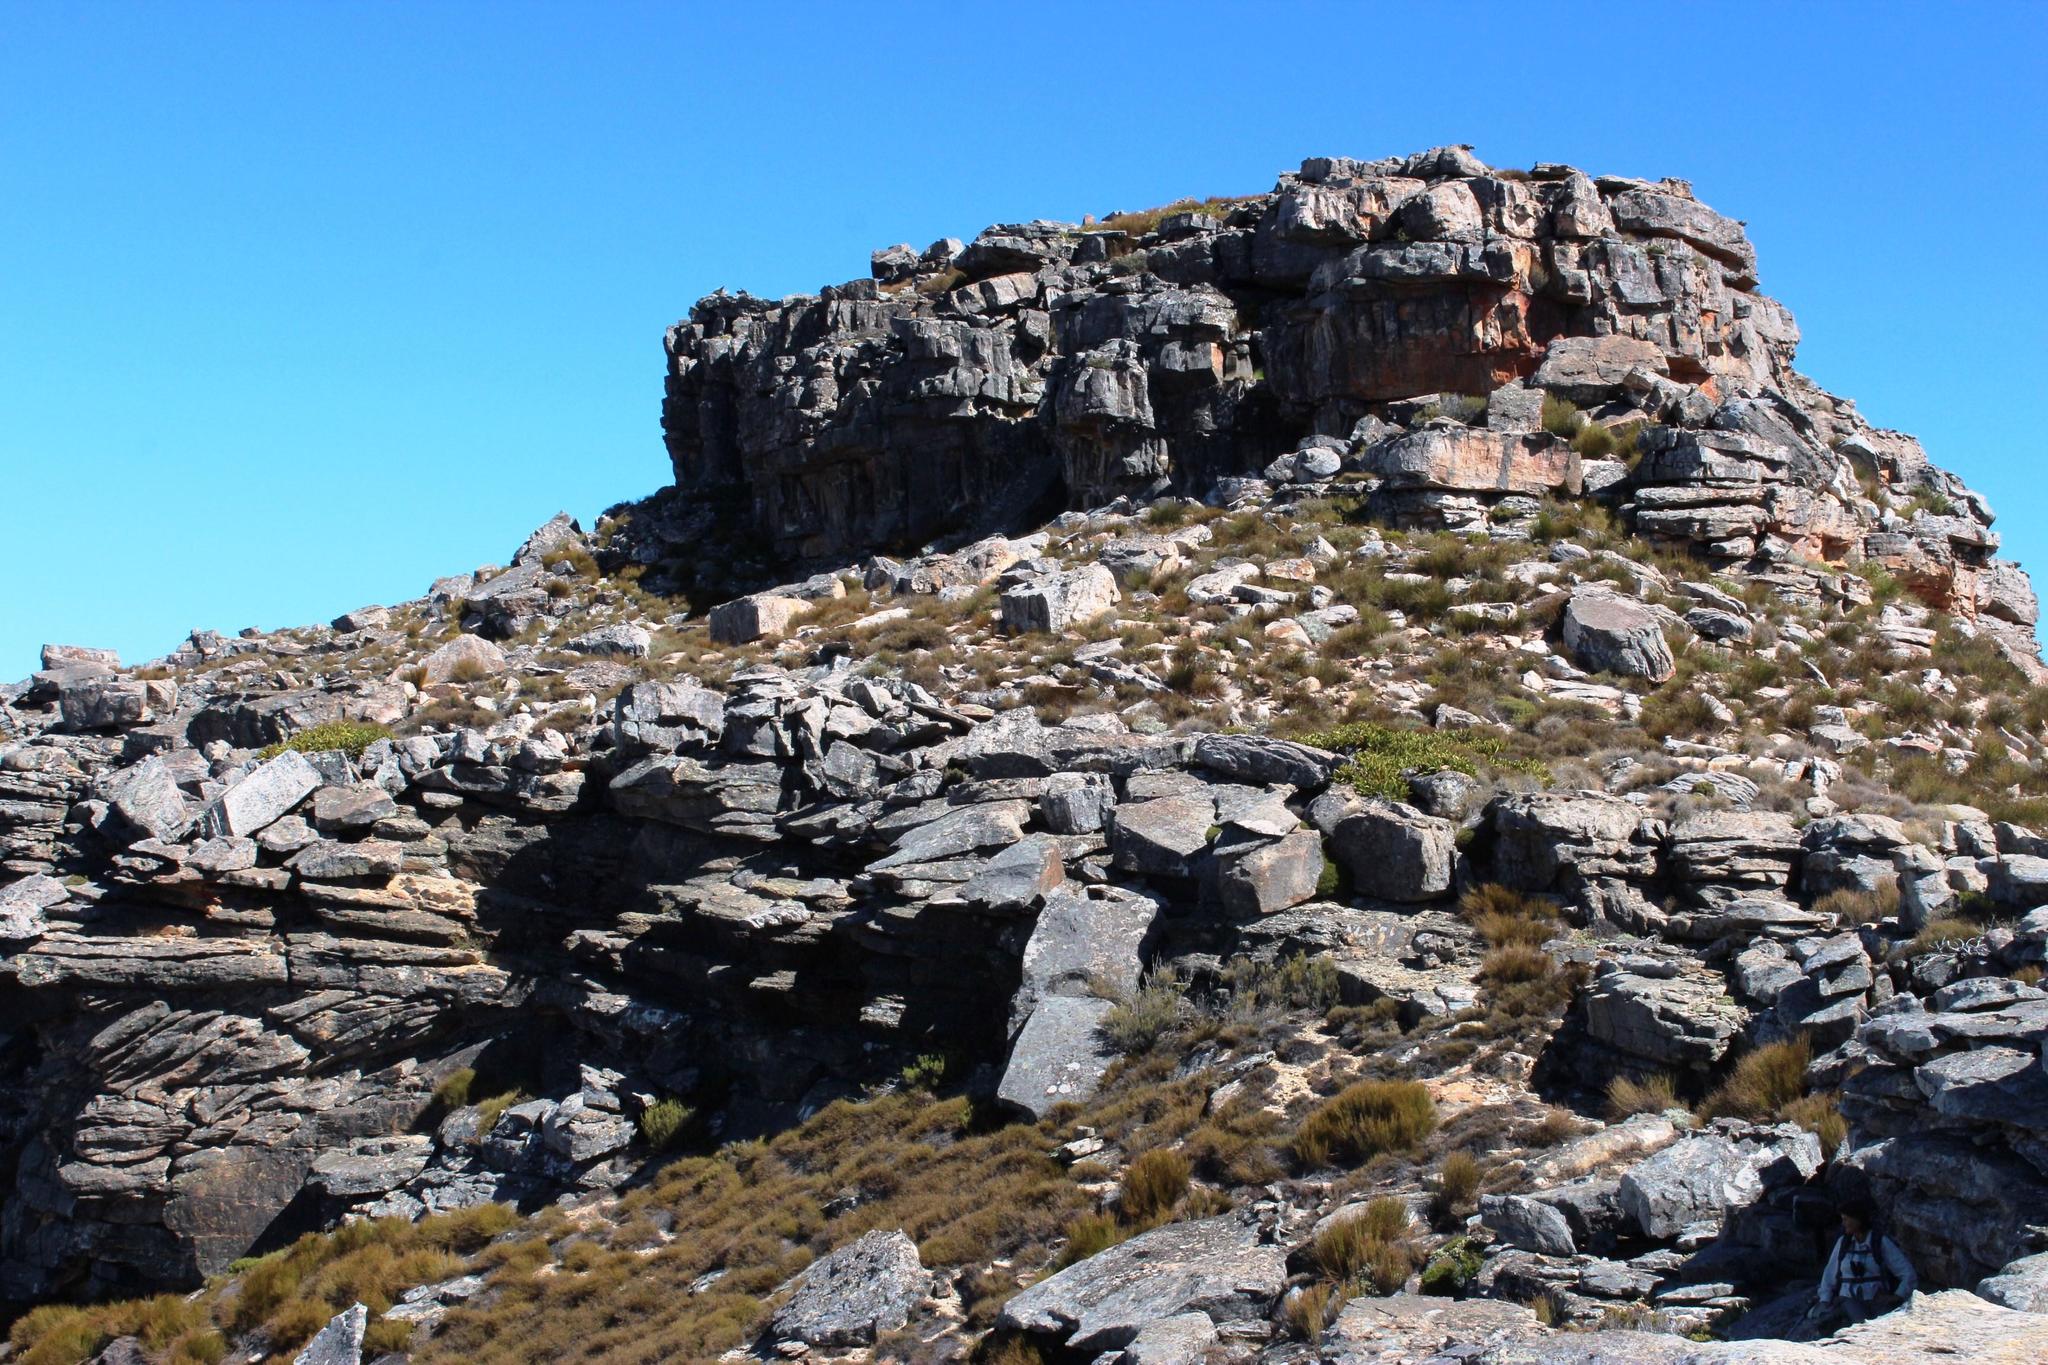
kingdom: Plantae
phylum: Tracheophyta
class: Magnoliopsida
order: Proteales
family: Proteaceae
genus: Protea
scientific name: Protea cryophila
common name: Snow protea
